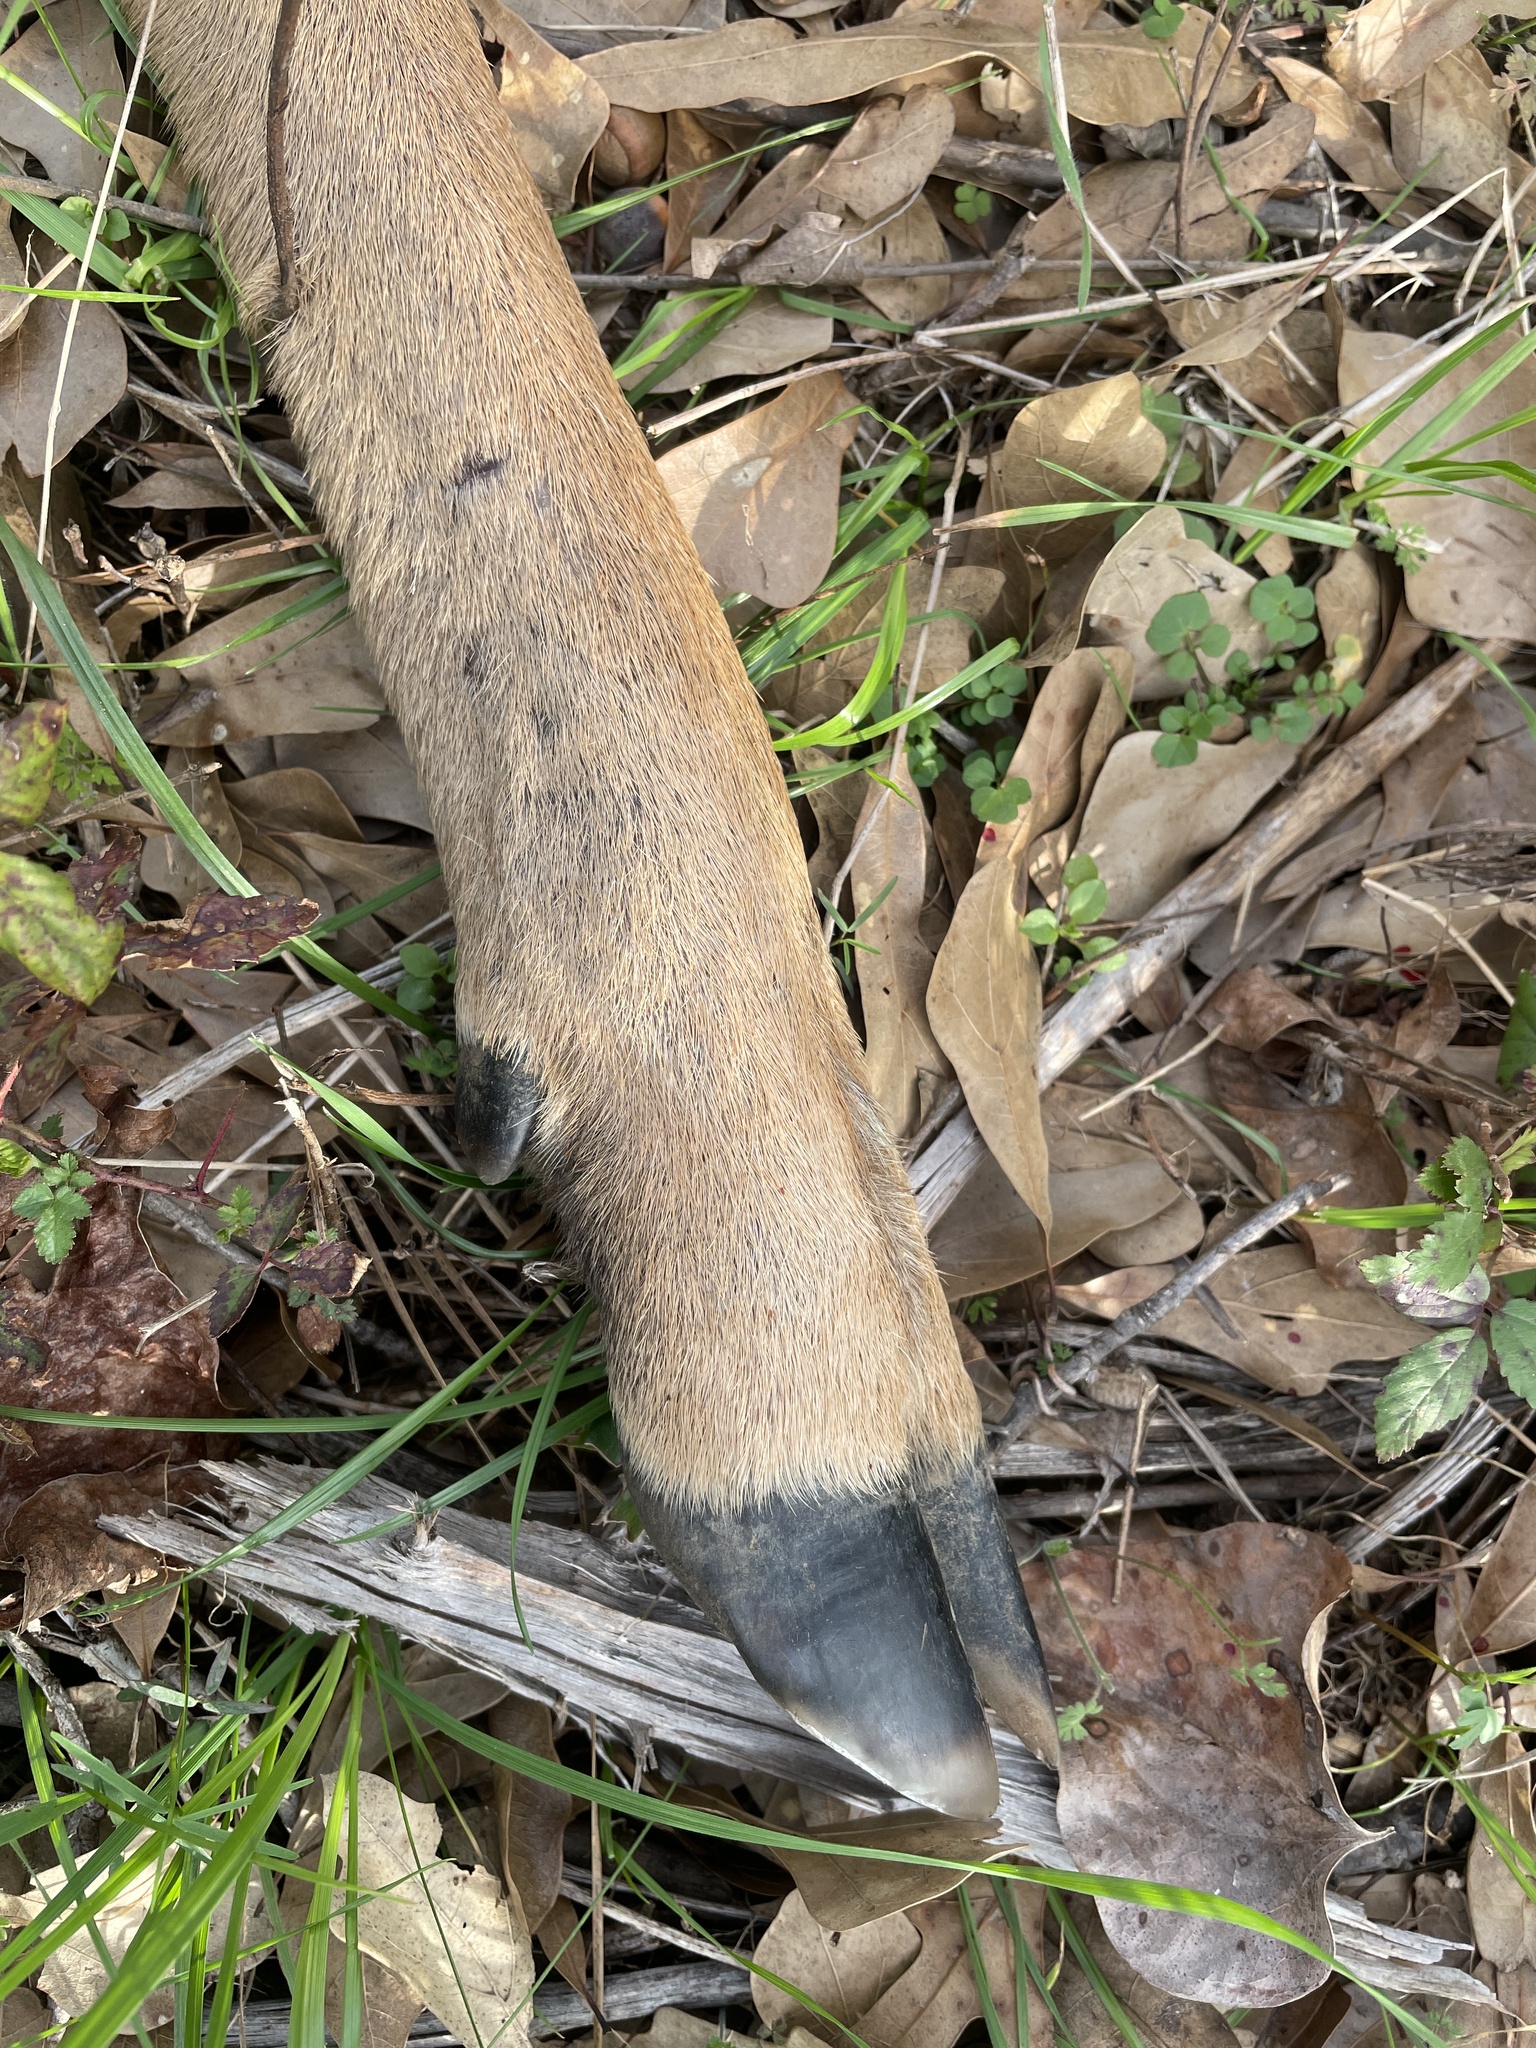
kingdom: Animalia
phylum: Chordata
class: Mammalia
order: Artiodactyla
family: Cervidae
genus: Odocoileus
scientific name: Odocoileus virginianus
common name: White-tailed deer
